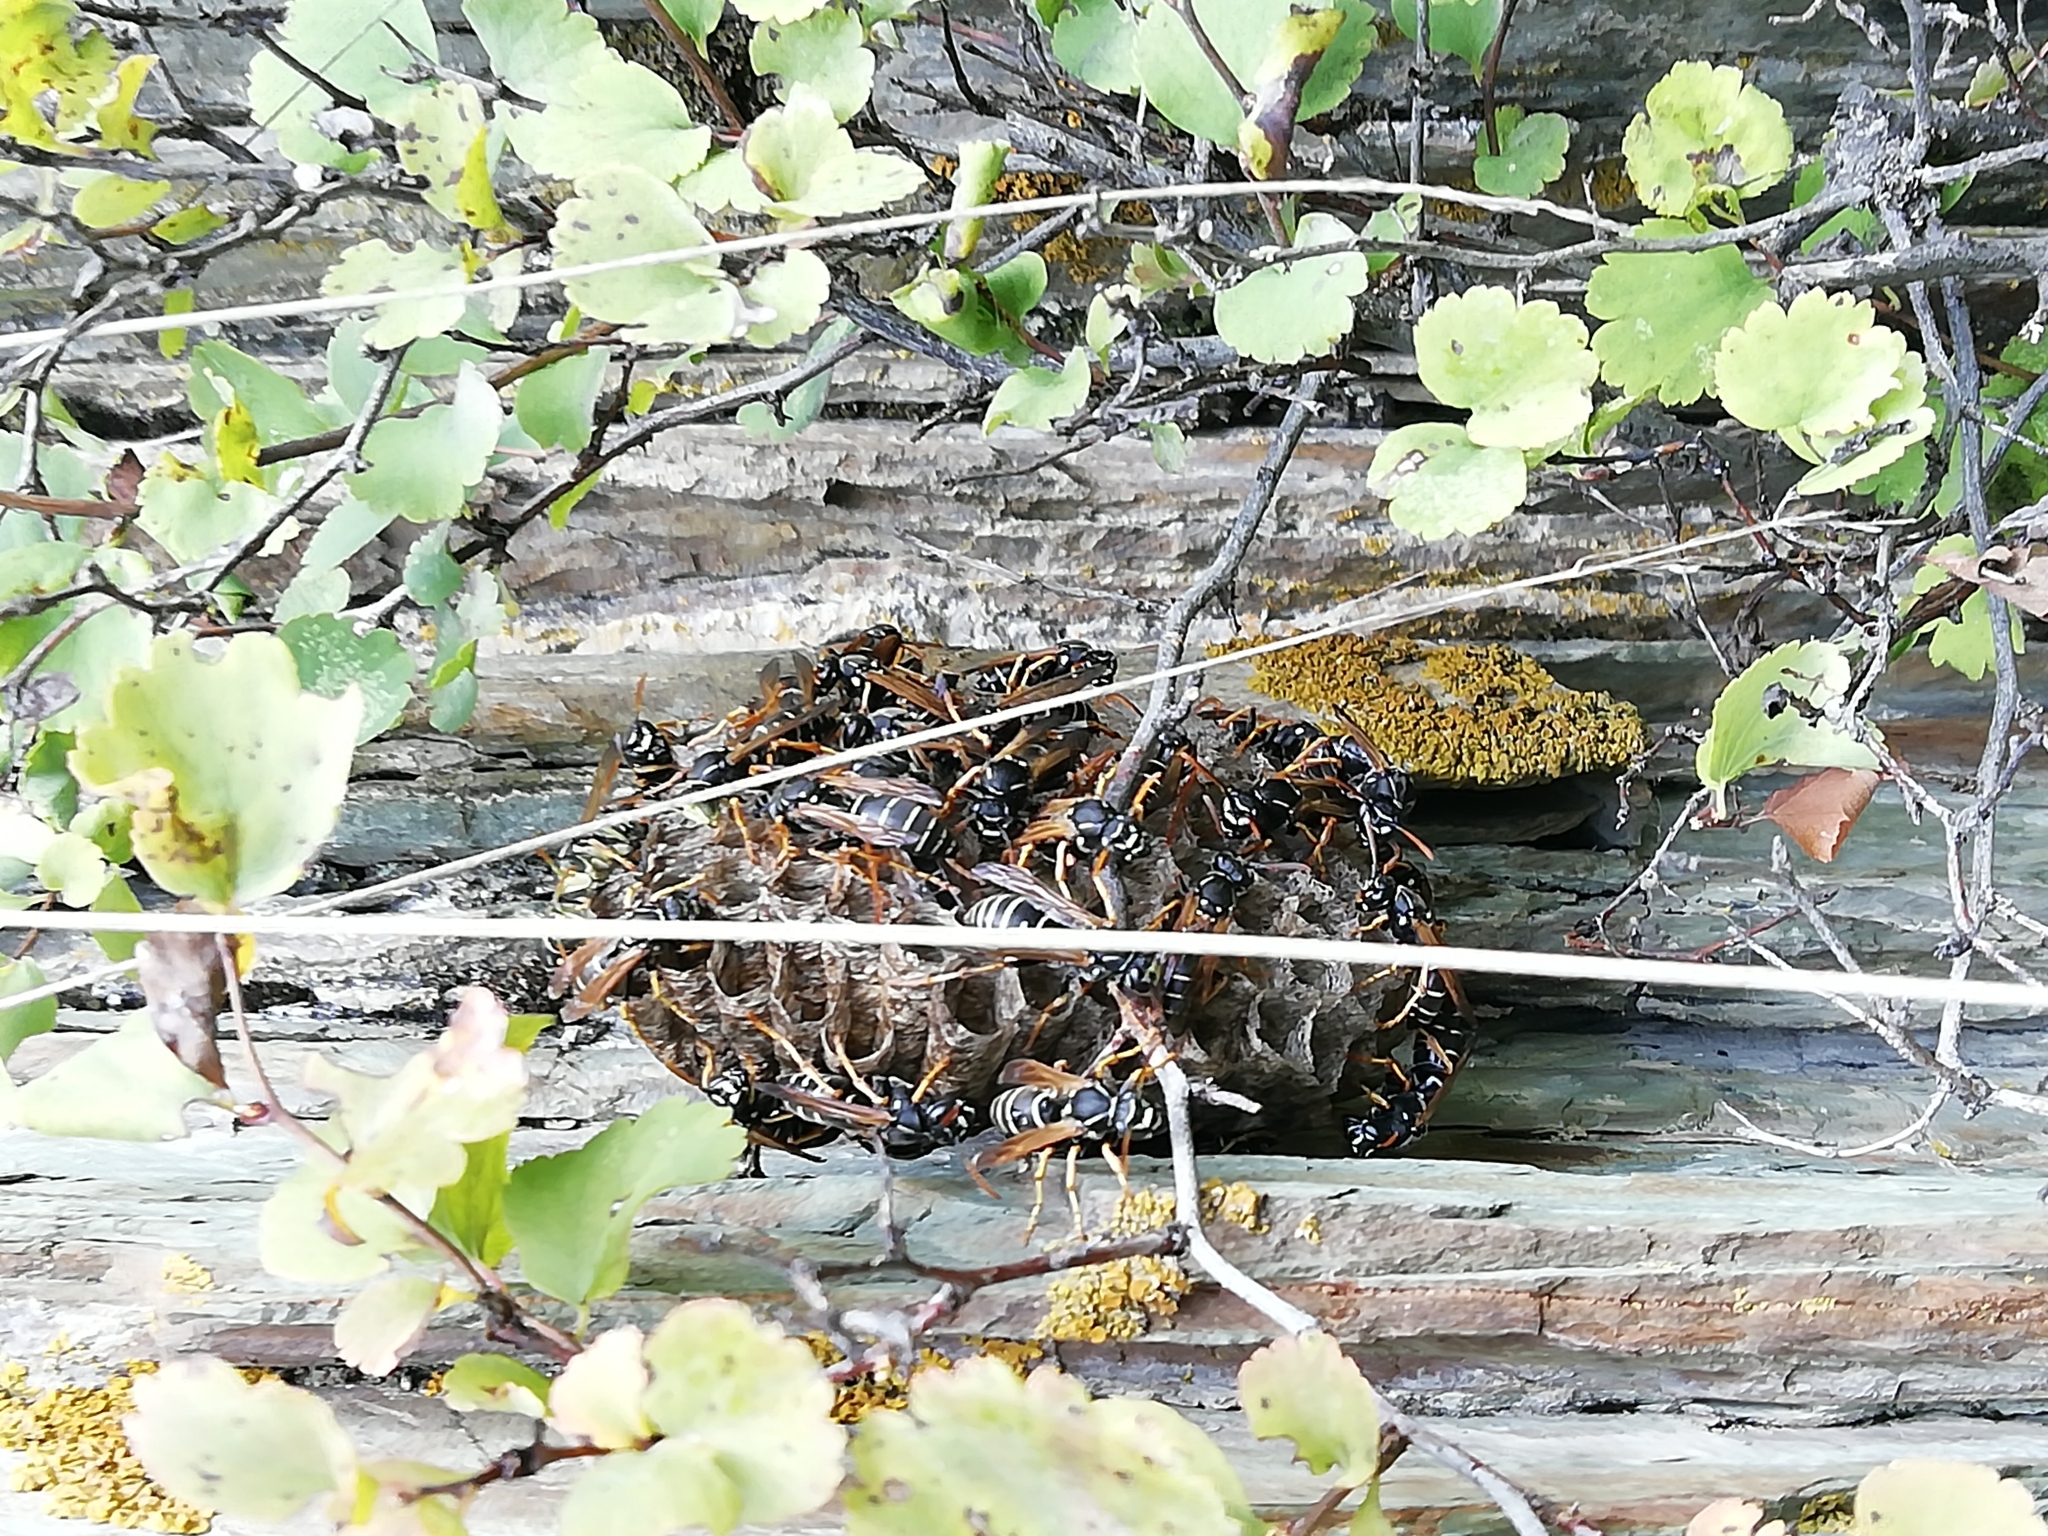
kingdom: Animalia
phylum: Arthropoda
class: Insecta
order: Hymenoptera
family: Eumenidae
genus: Polistes
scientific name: Polistes nimpha
